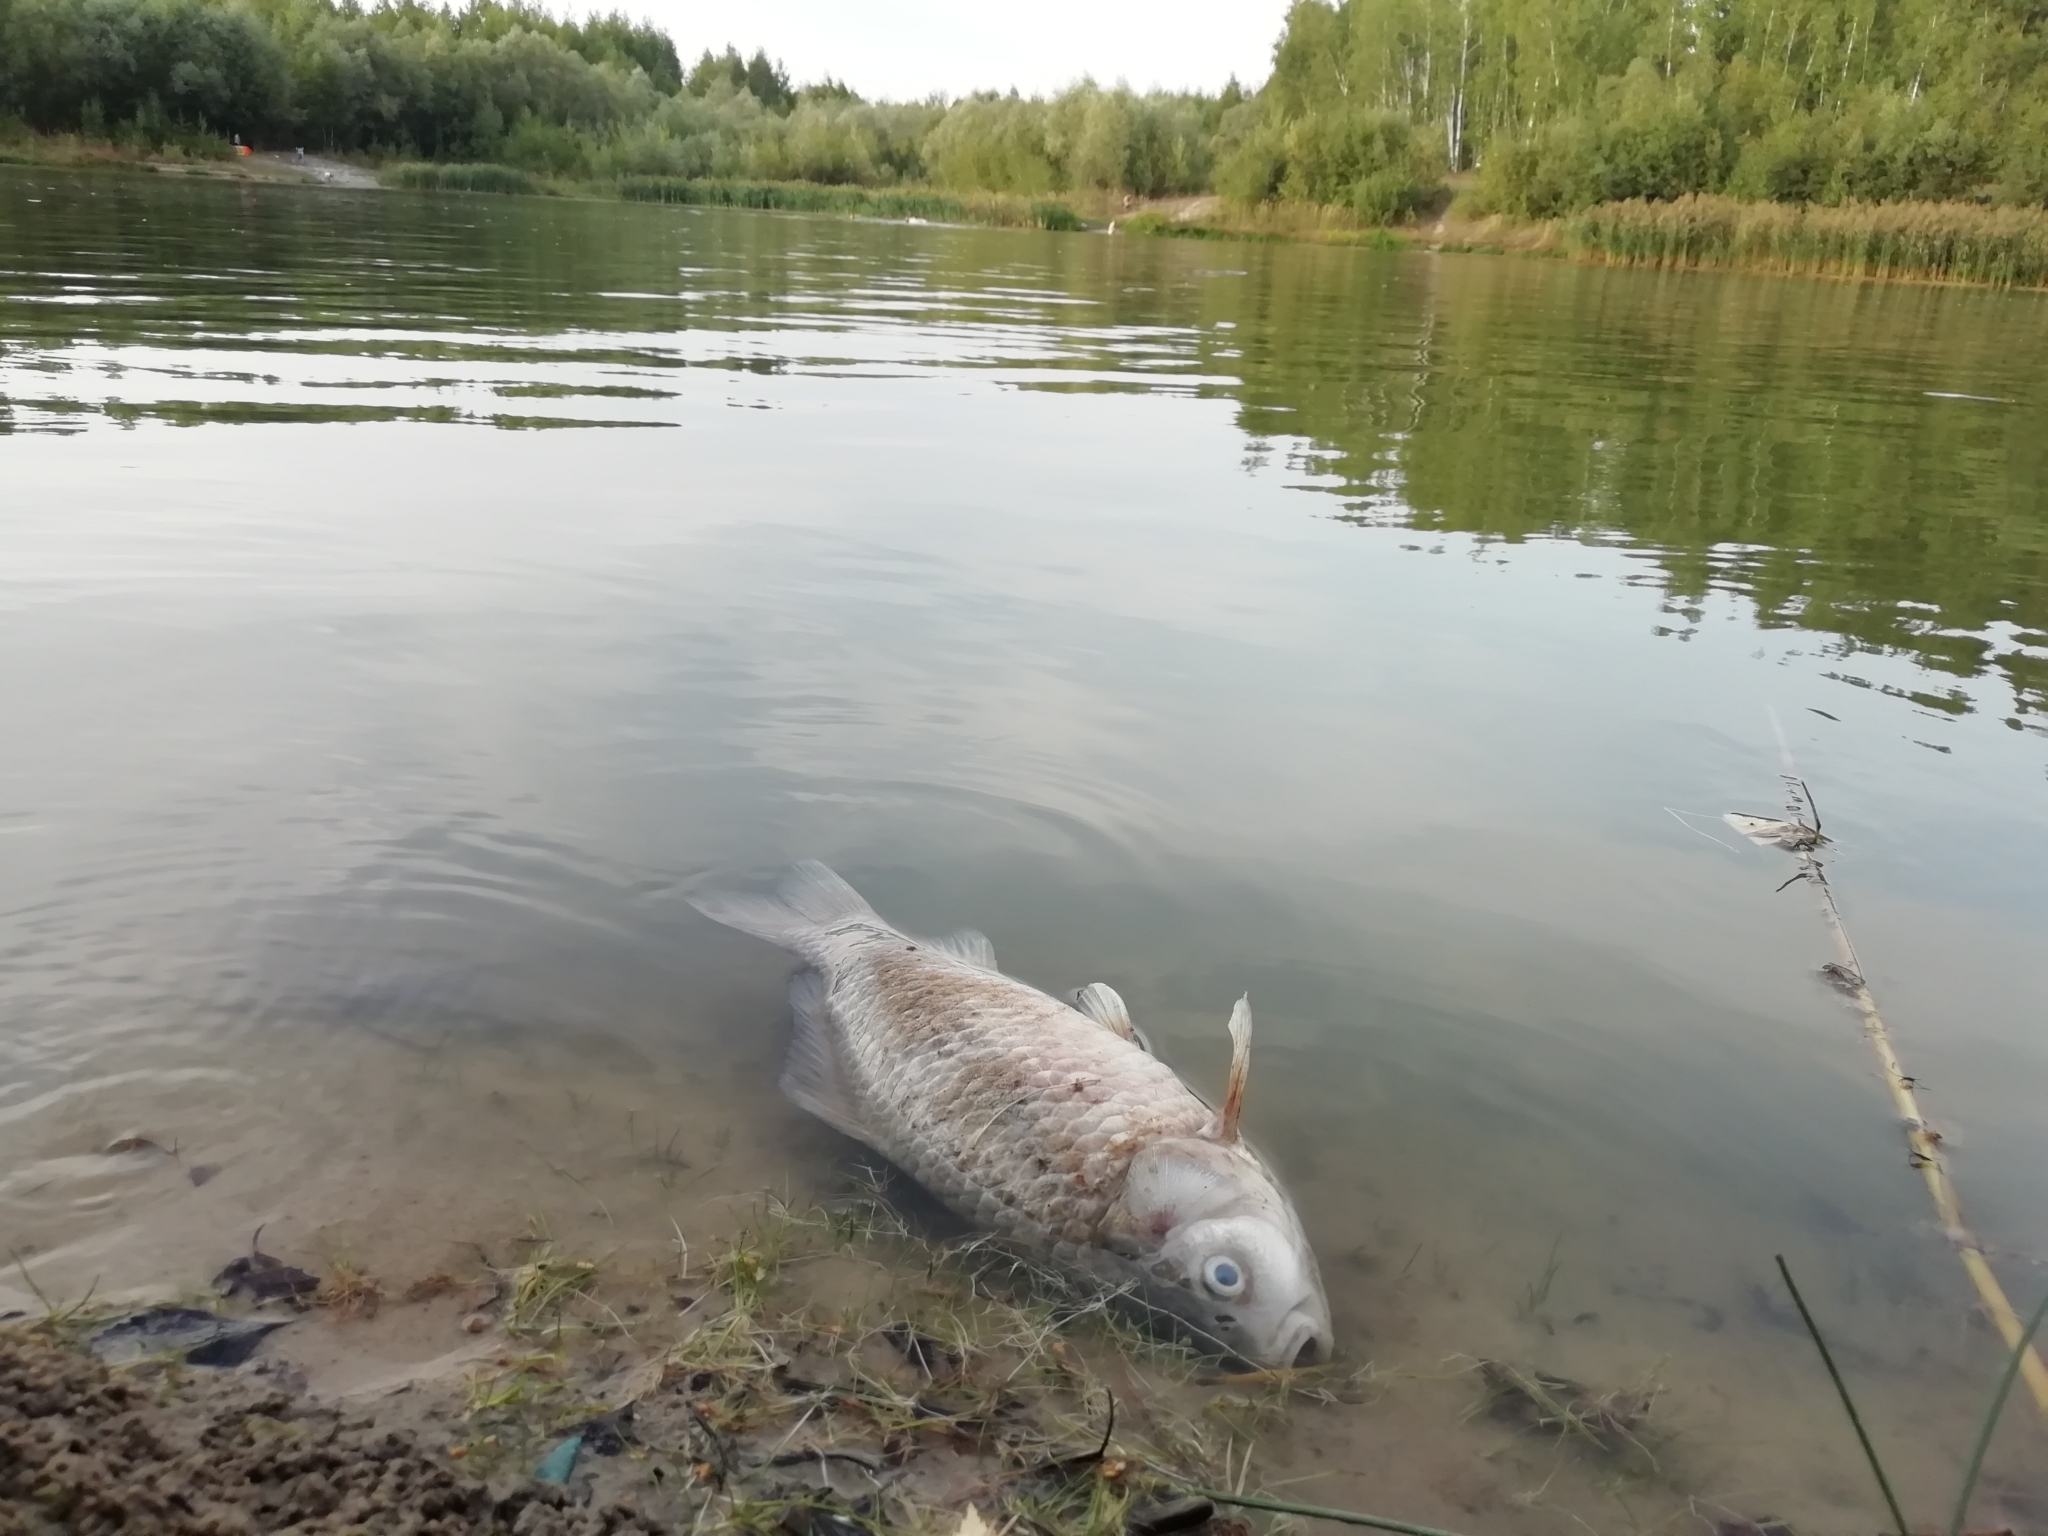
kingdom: Animalia
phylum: Chordata
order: Cypriniformes
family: Cyprinidae
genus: Carassius
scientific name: Carassius gibelio
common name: Prussian carp
